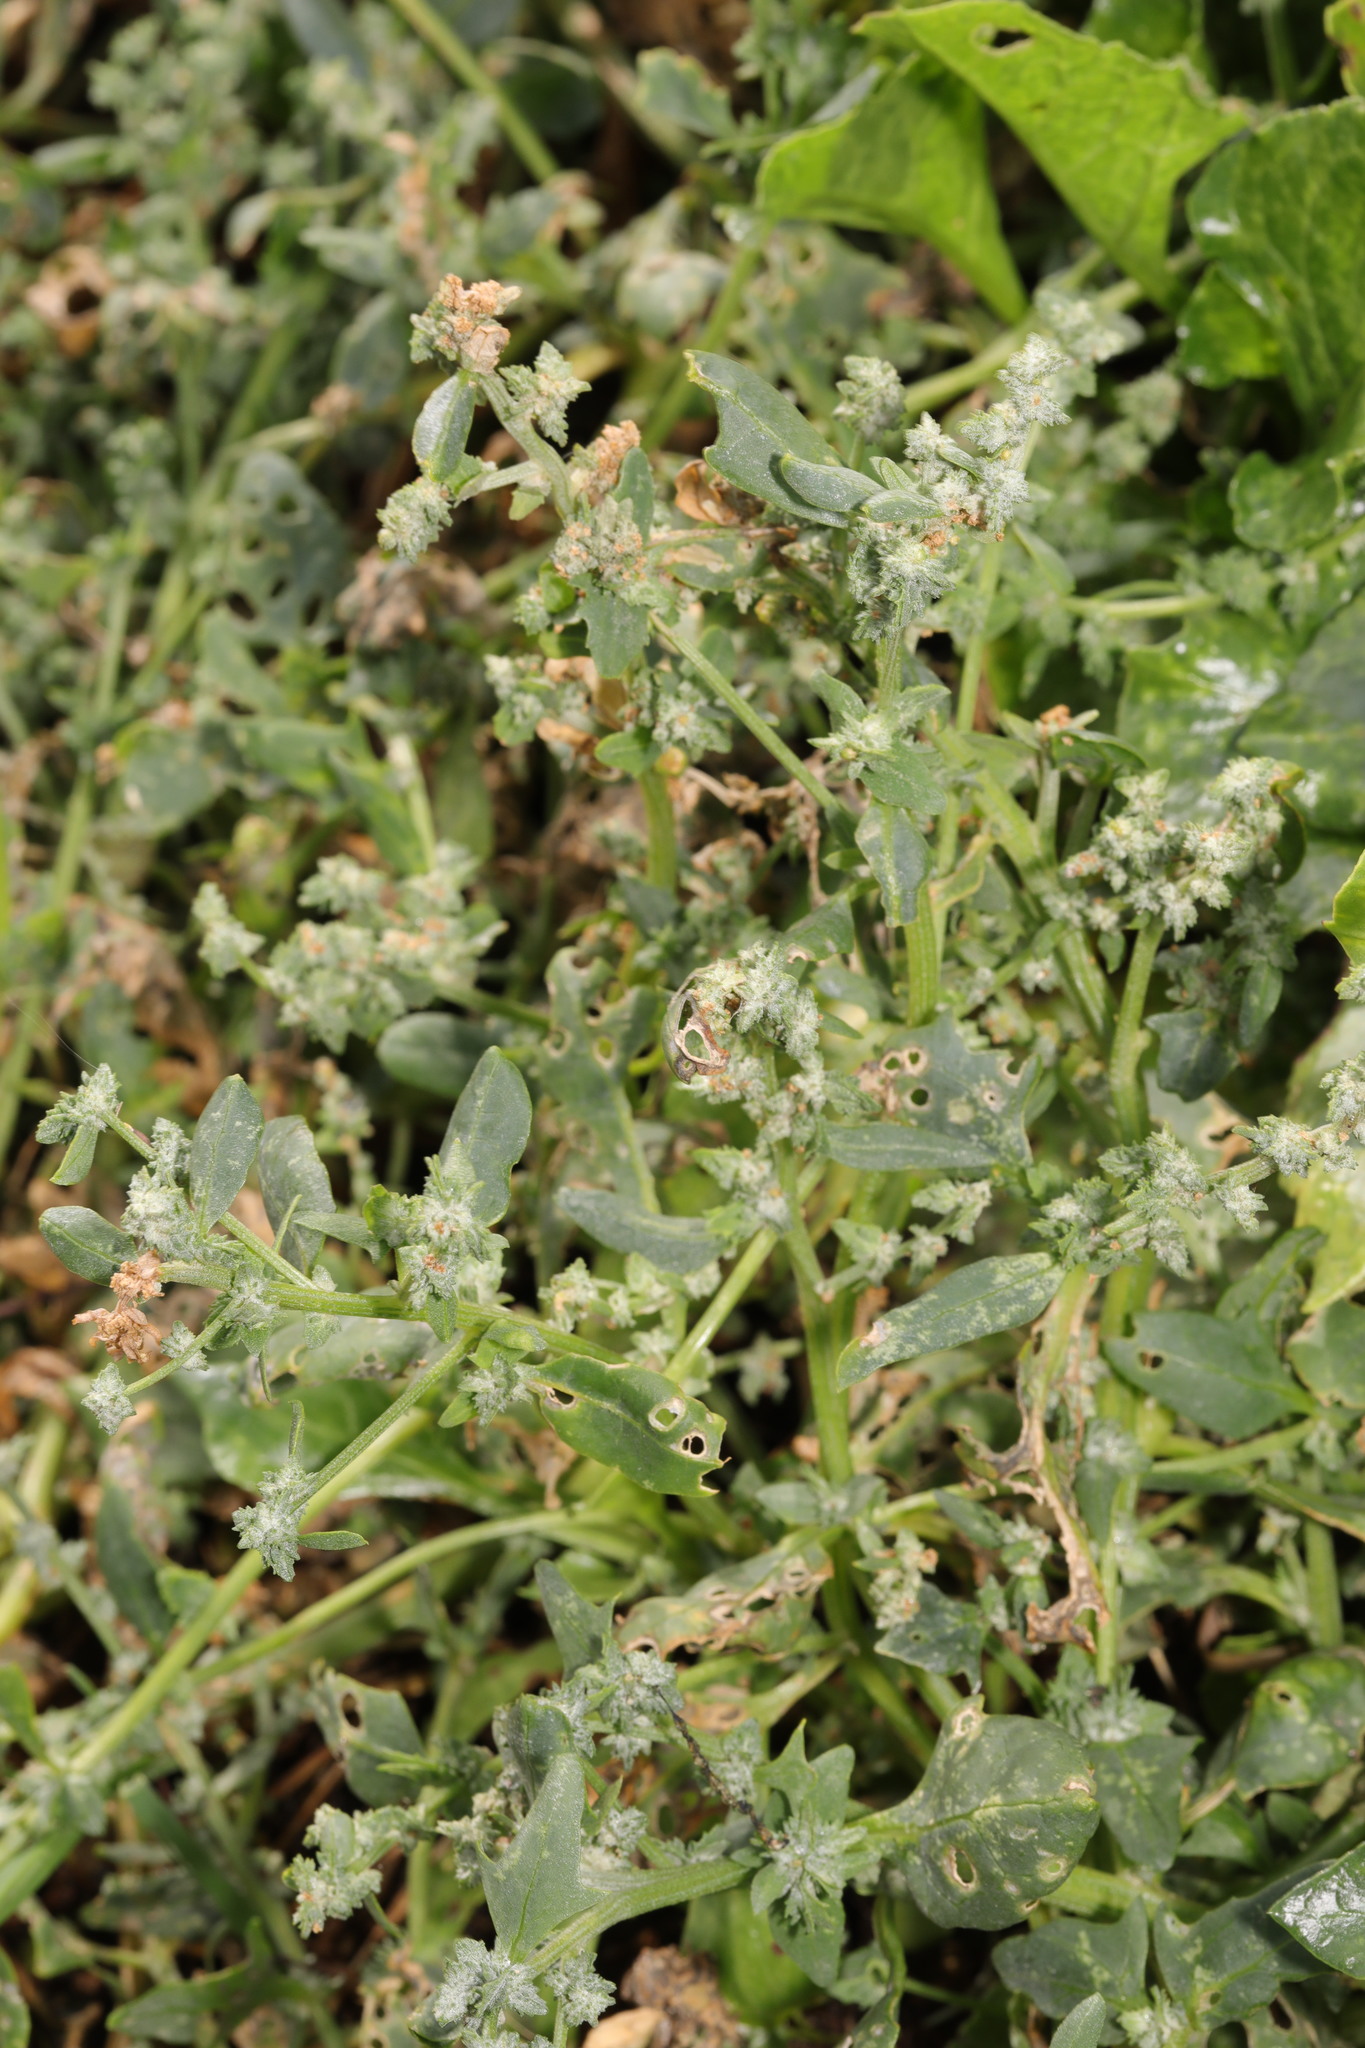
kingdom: Plantae
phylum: Tracheophyta
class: Magnoliopsida
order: Caryophyllales
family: Amaranthaceae
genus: Atriplex
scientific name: Atriplex patula
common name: Common orache
